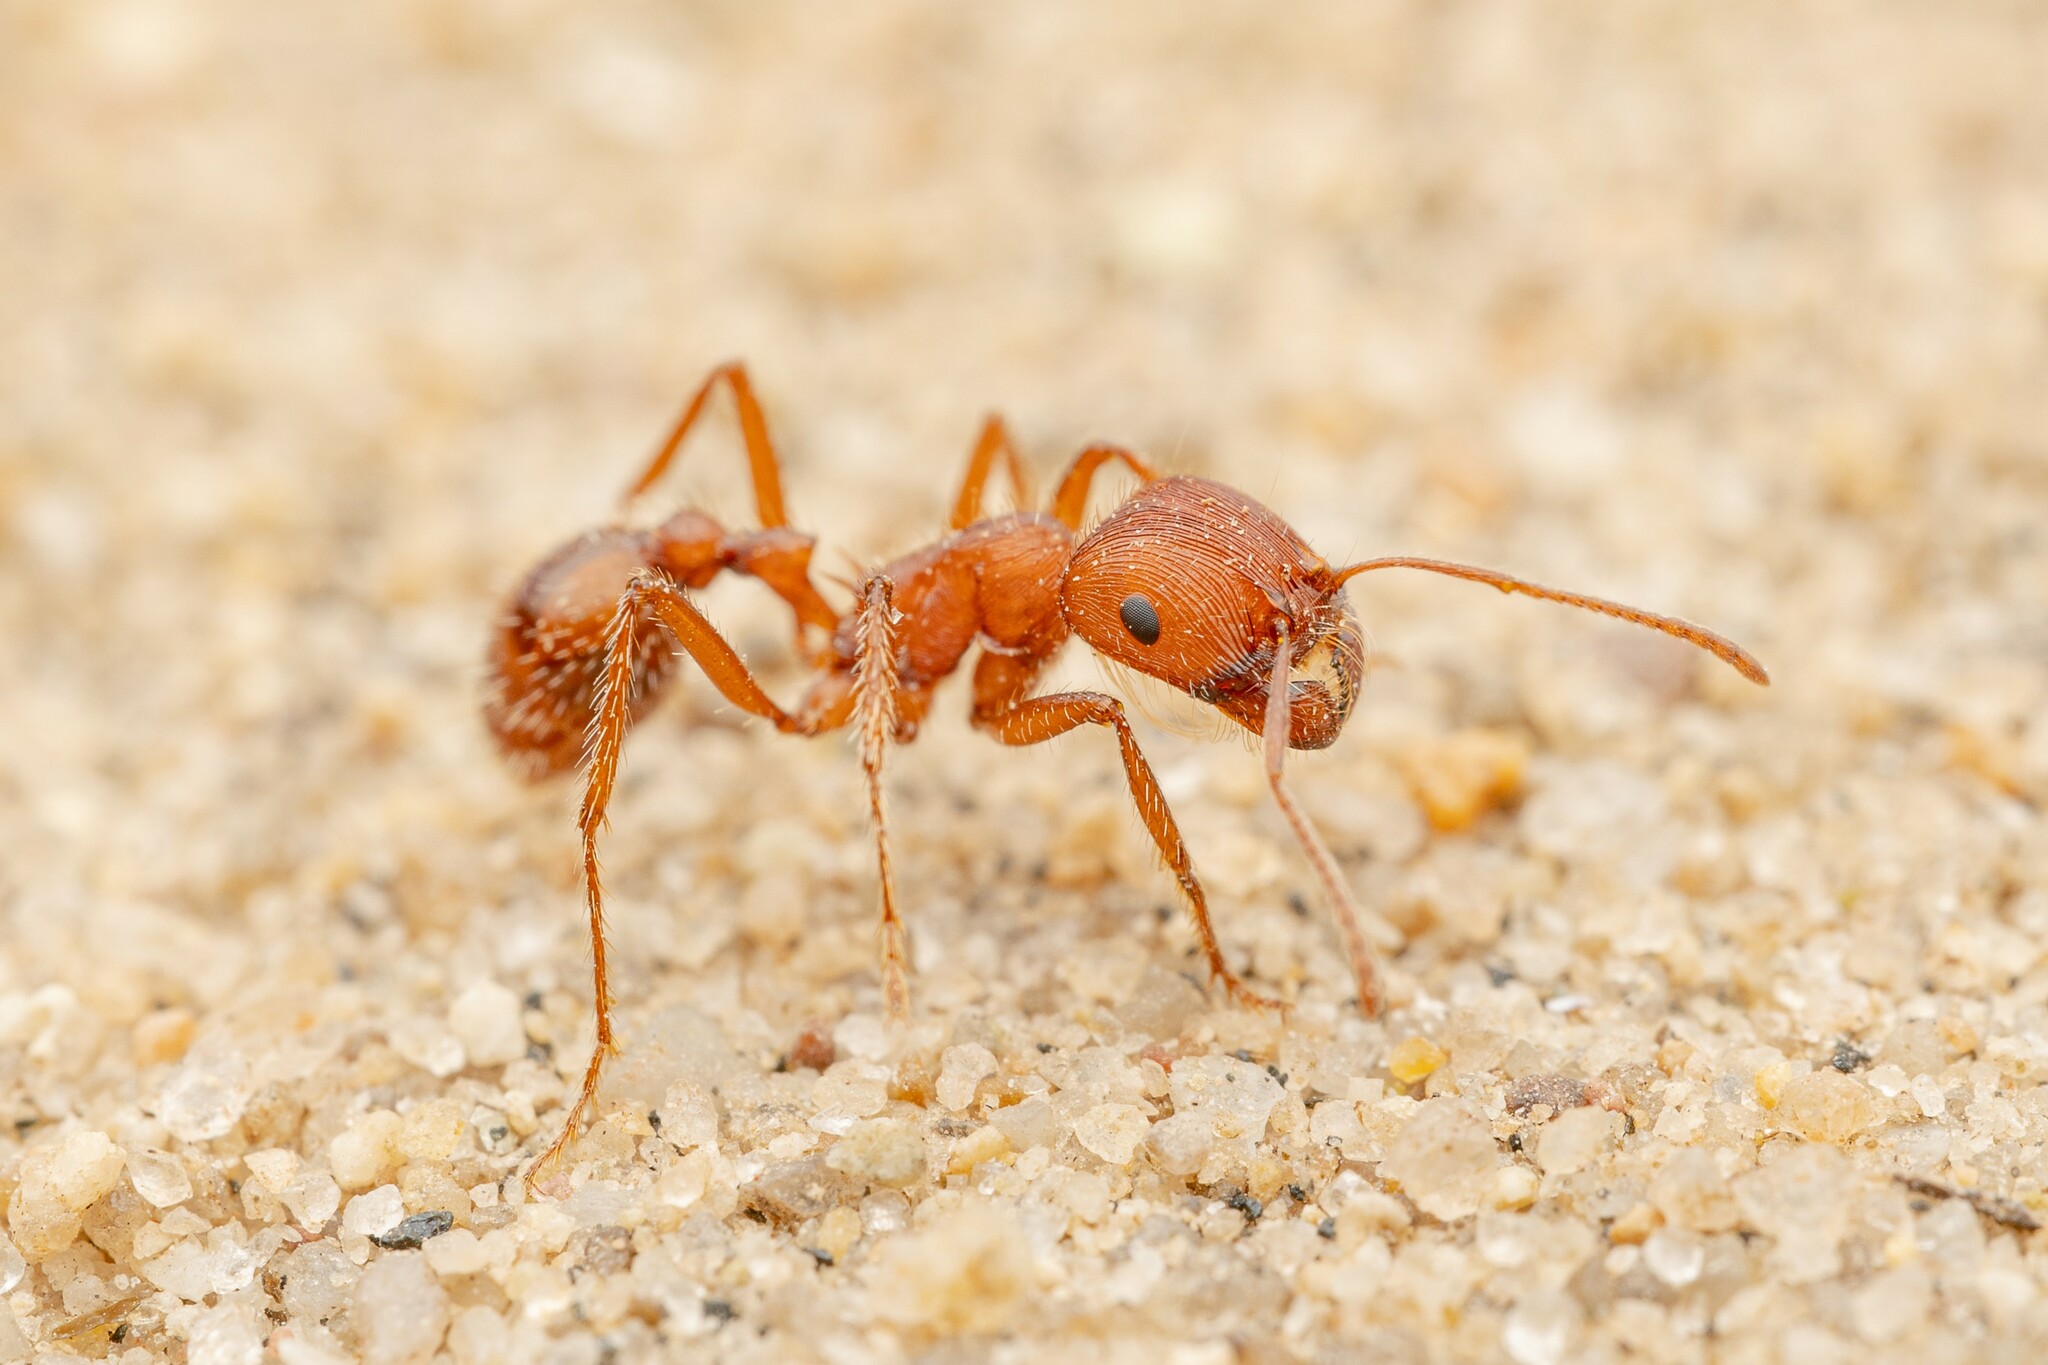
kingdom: Animalia
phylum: Arthropoda
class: Insecta
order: Hymenoptera
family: Formicidae
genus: Pogonomyrmex
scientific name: Pogonomyrmex subnitidus
